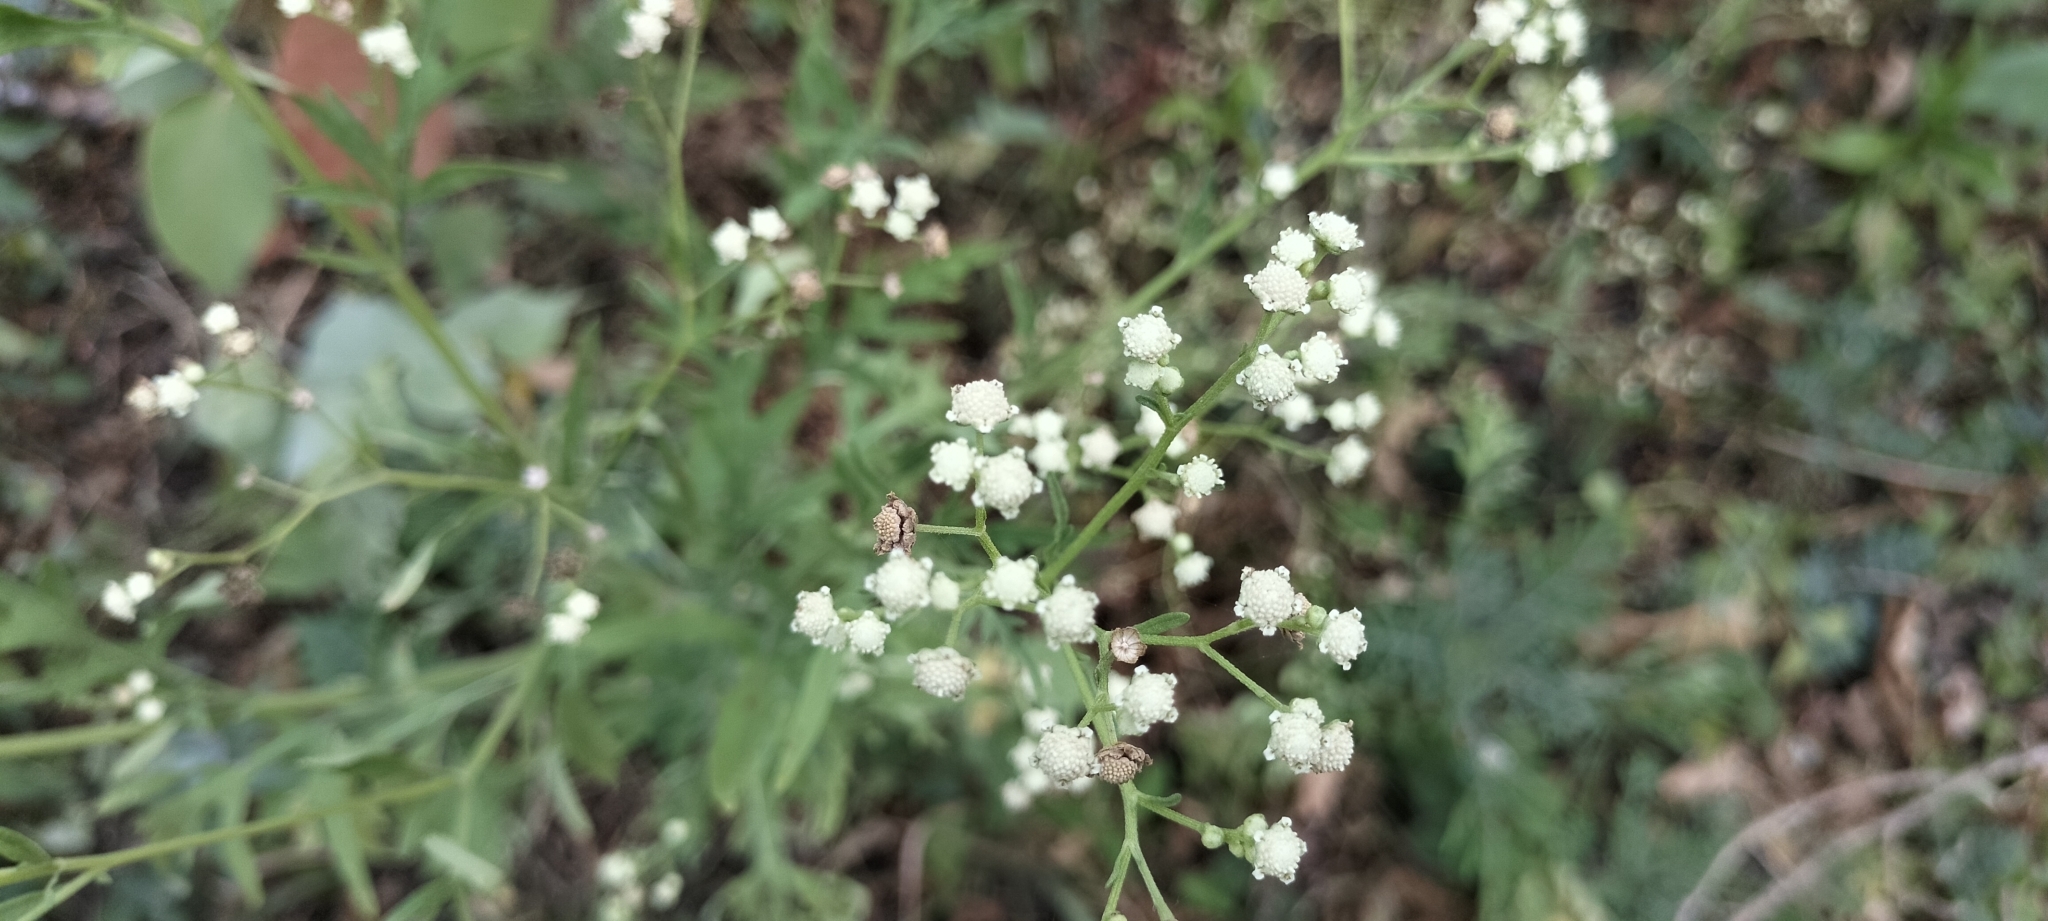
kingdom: Plantae
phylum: Tracheophyta
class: Magnoliopsida
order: Asterales
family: Asteraceae
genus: Parthenium
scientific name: Parthenium hysterophorus
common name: Santa maria feverfew
